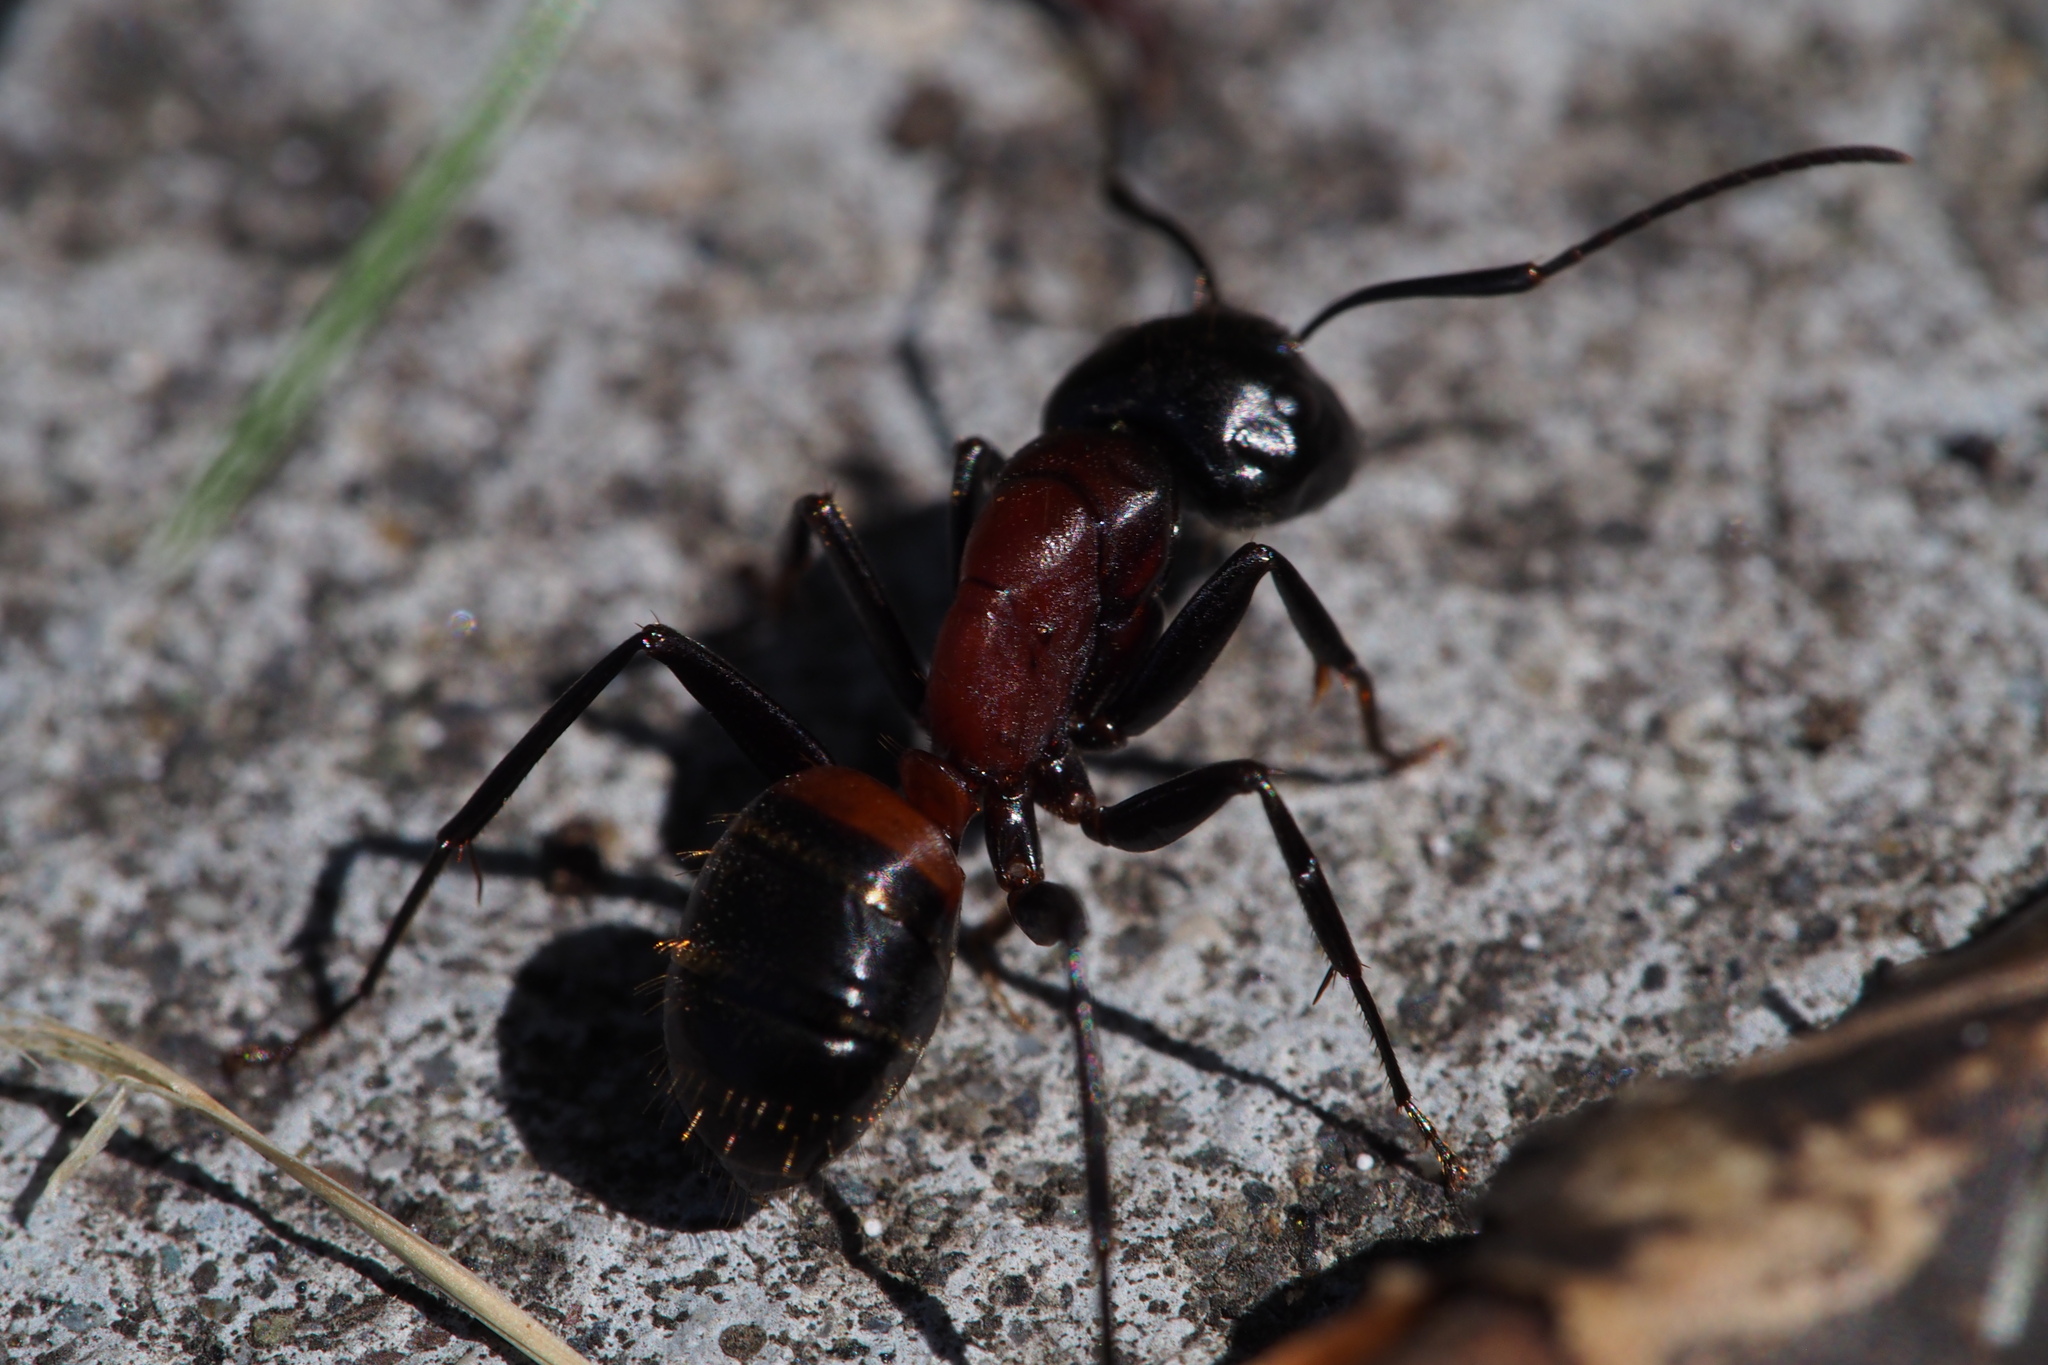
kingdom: Animalia
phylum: Arthropoda
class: Insecta
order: Hymenoptera
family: Formicidae
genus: Camponotus
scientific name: Camponotus obscuripes
